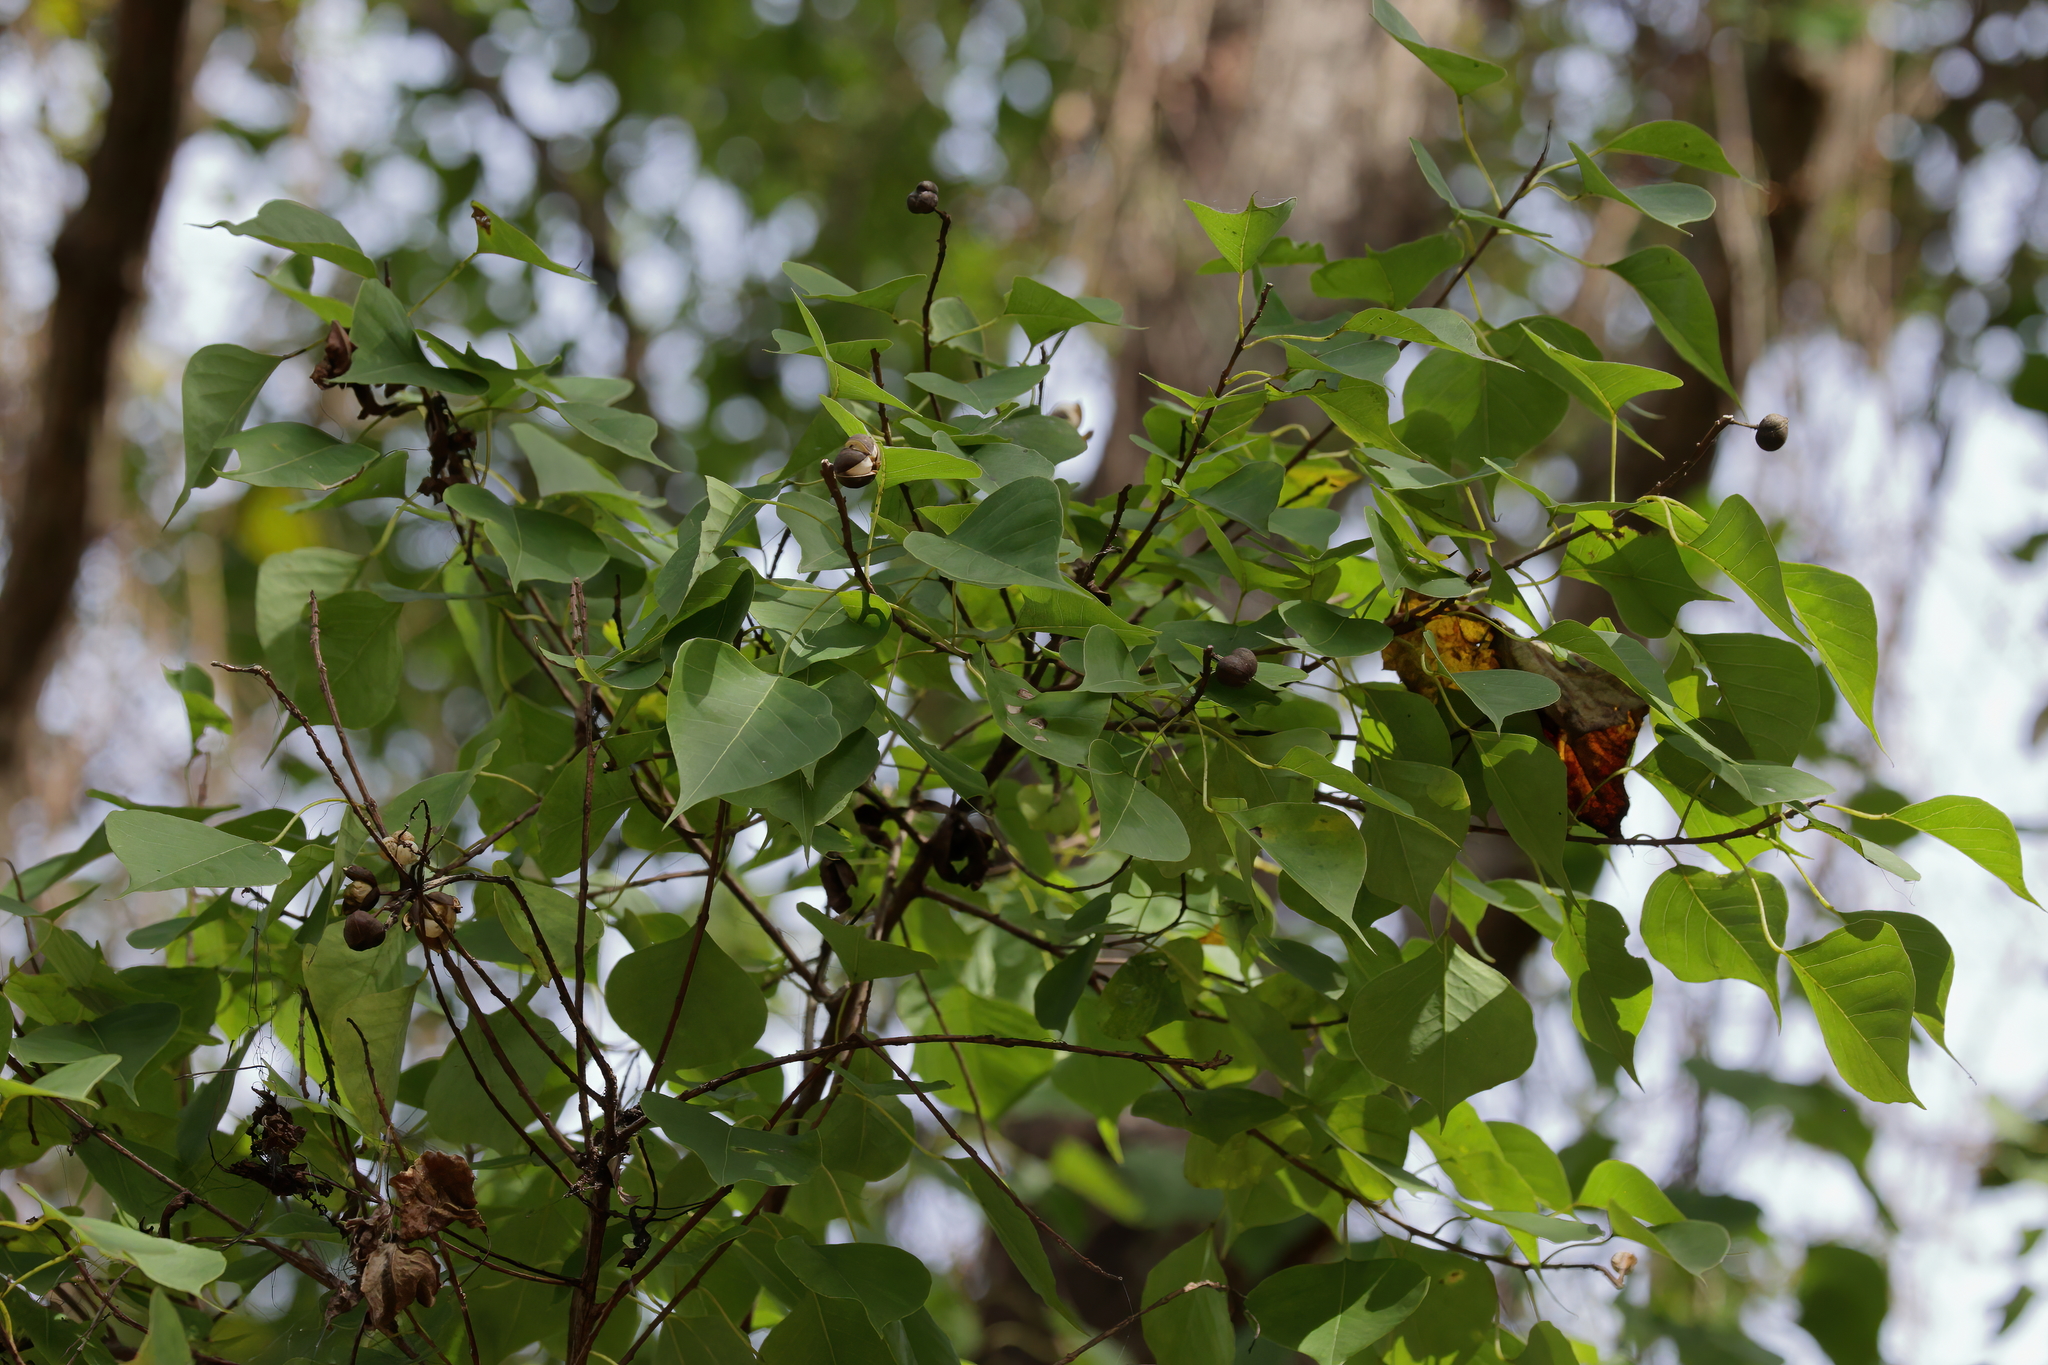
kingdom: Plantae
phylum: Tracheophyta
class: Magnoliopsida
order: Malpighiales
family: Euphorbiaceae
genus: Triadica
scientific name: Triadica sebifera
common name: Chinese tallow
